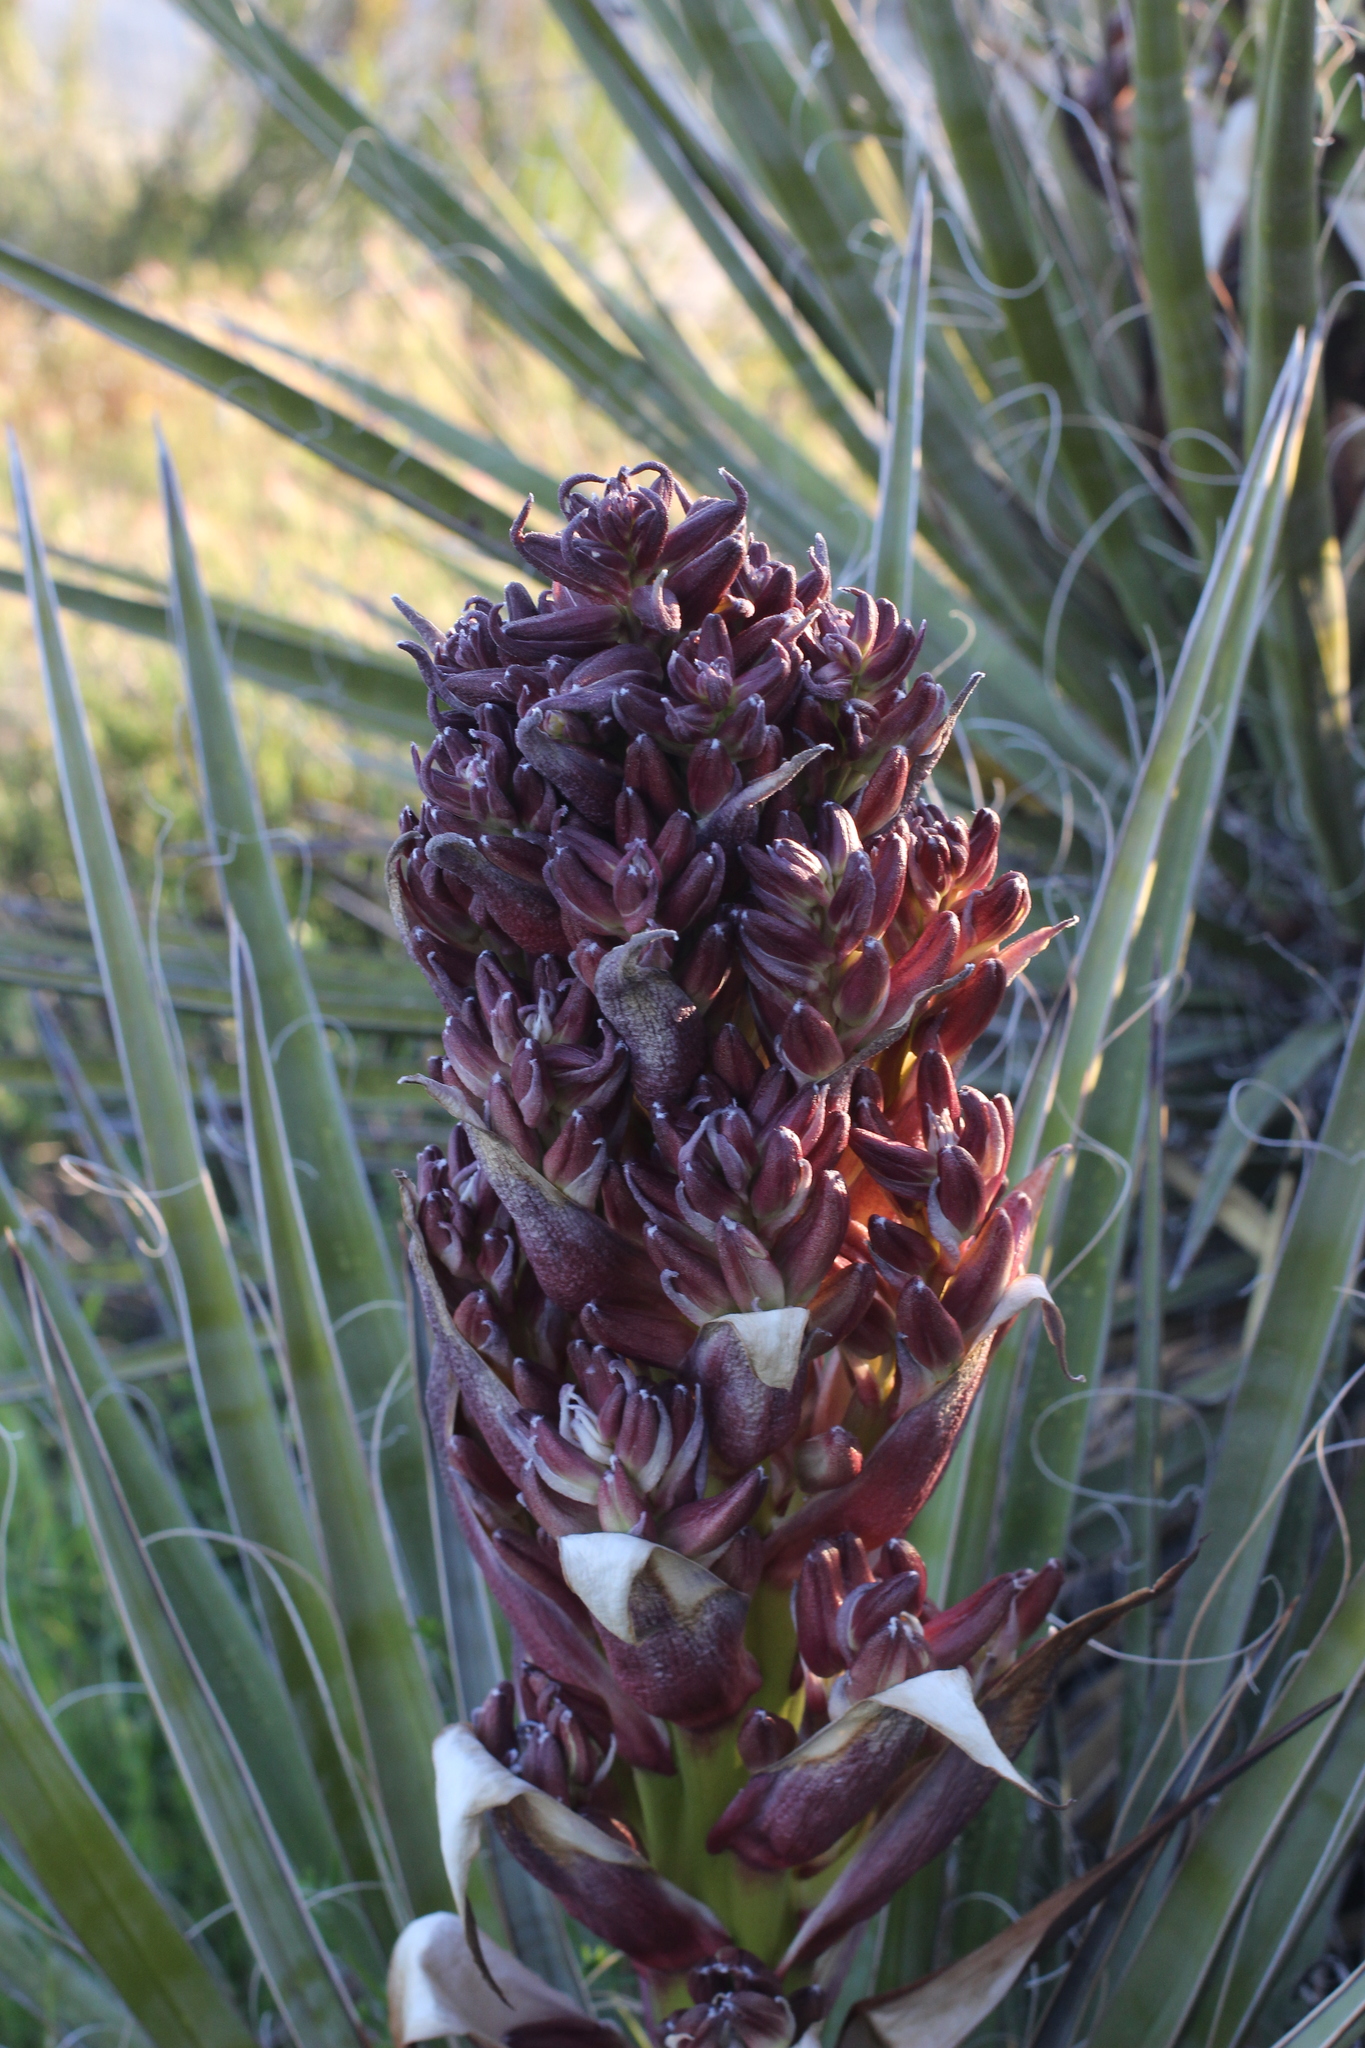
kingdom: Plantae
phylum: Tracheophyta
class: Liliopsida
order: Asparagales
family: Asparagaceae
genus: Yucca
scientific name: Yucca schidigera
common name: Mojave yucca
